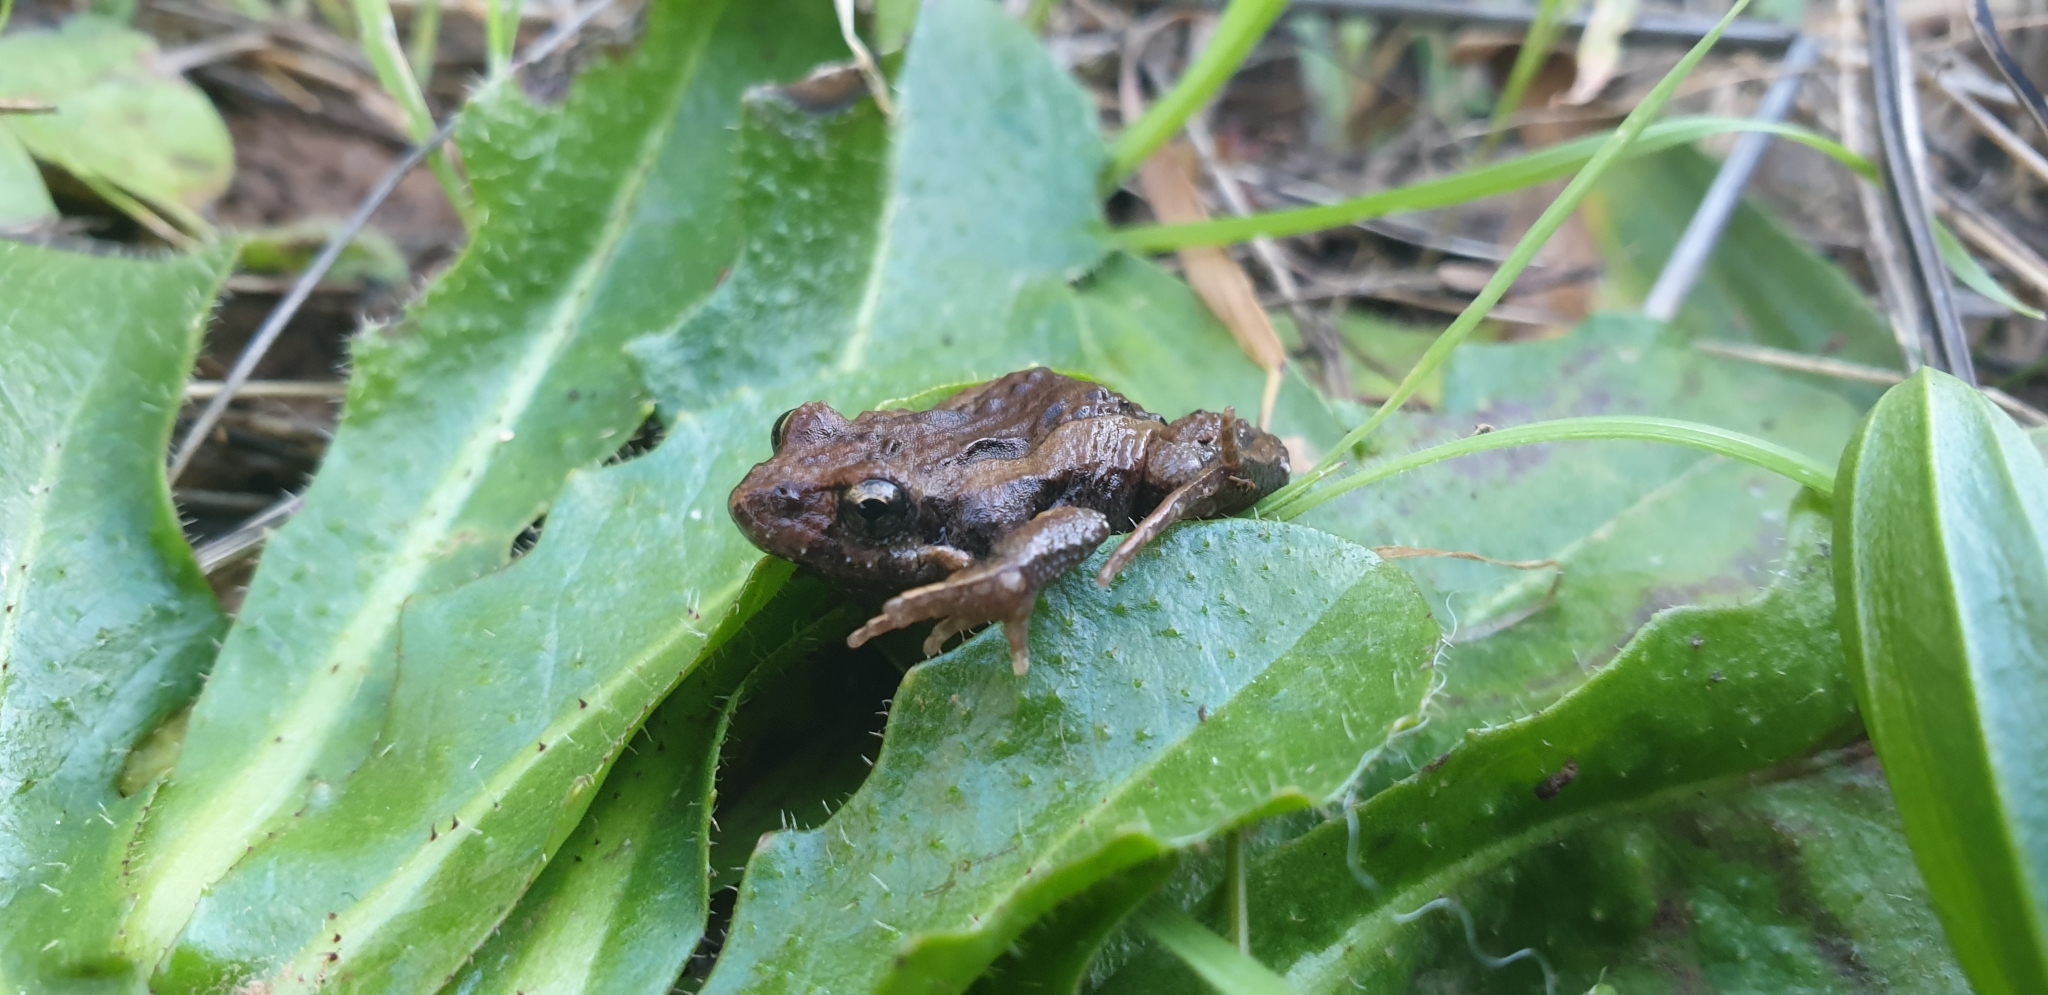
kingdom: Animalia
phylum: Chordata
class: Amphibia
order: Anura
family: Myobatrachidae
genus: Crinia
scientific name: Crinia signifera
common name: Brown froglet
